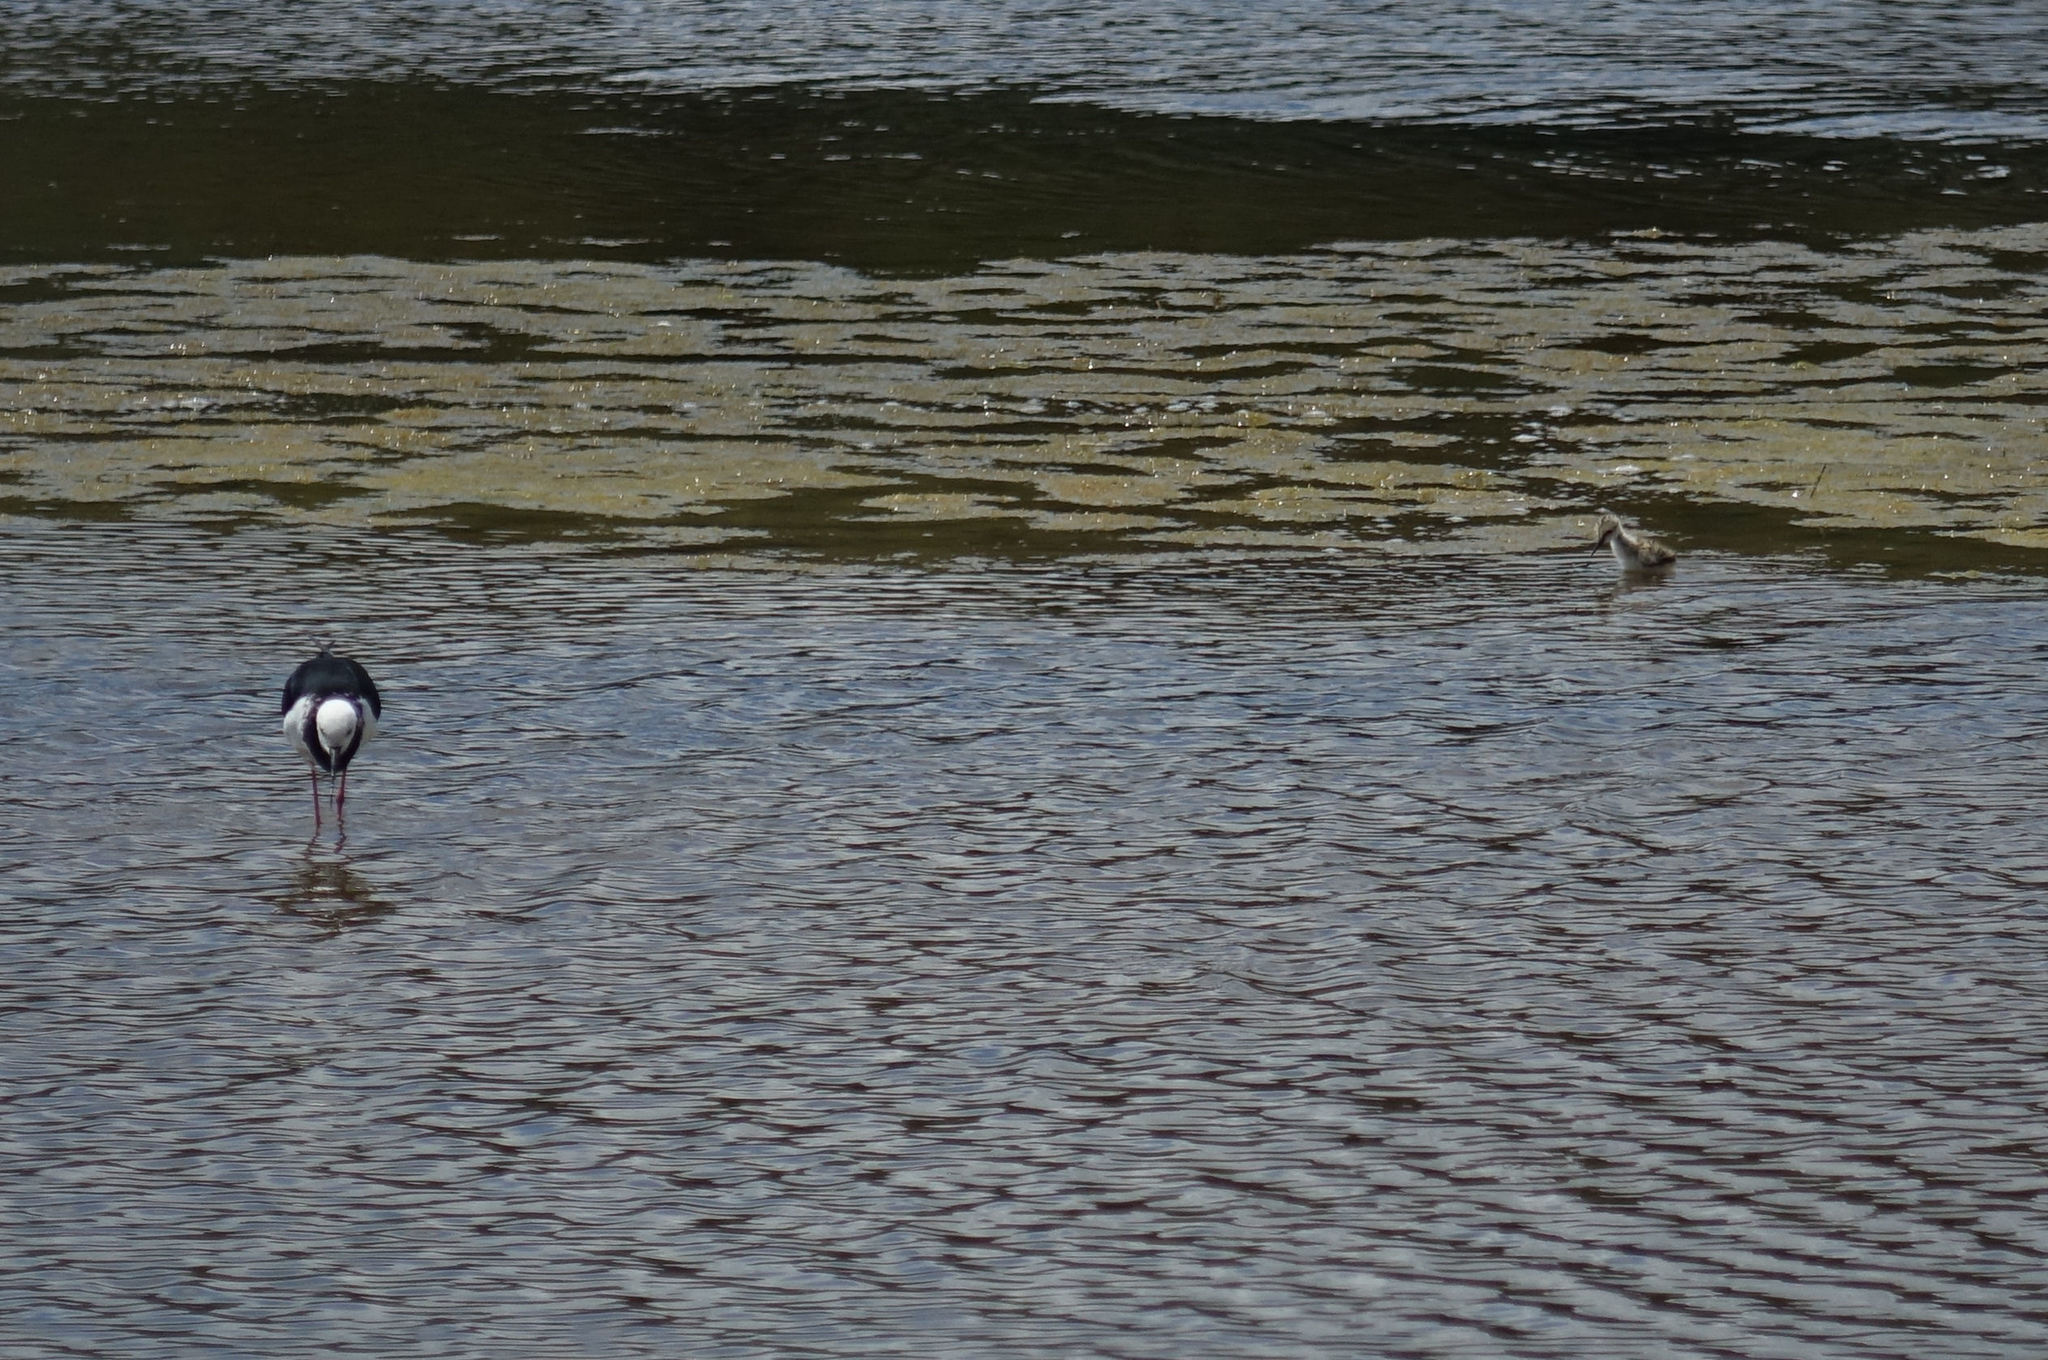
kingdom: Animalia
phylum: Chordata
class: Aves
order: Charadriiformes
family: Recurvirostridae
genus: Himantopus
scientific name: Himantopus leucocephalus
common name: White-headed stilt
